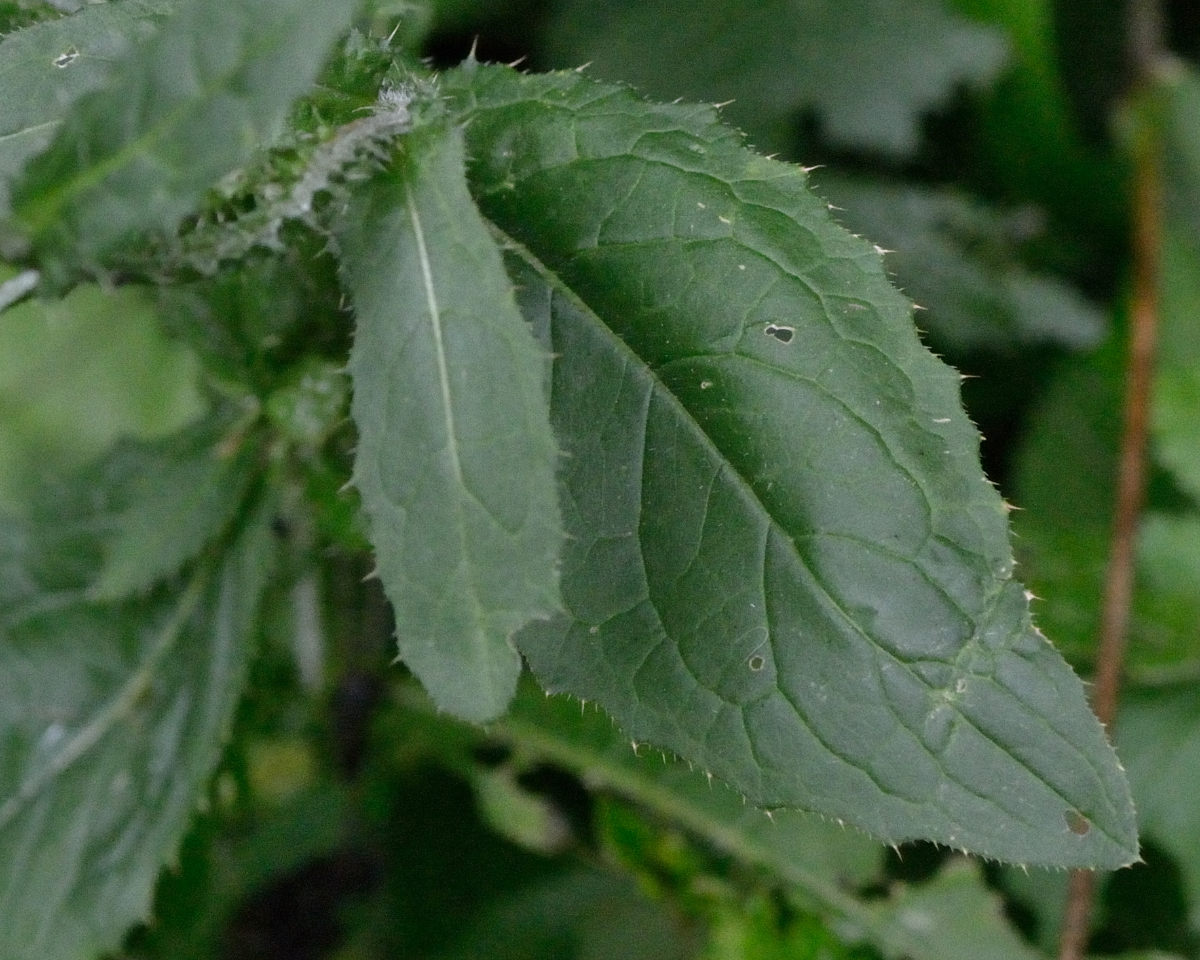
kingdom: Plantae
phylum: Tracheophyta
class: Magnoliopsida
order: Asterales
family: Asteraceae
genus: Carduus
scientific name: Carduus crispus
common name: Welted thistle
